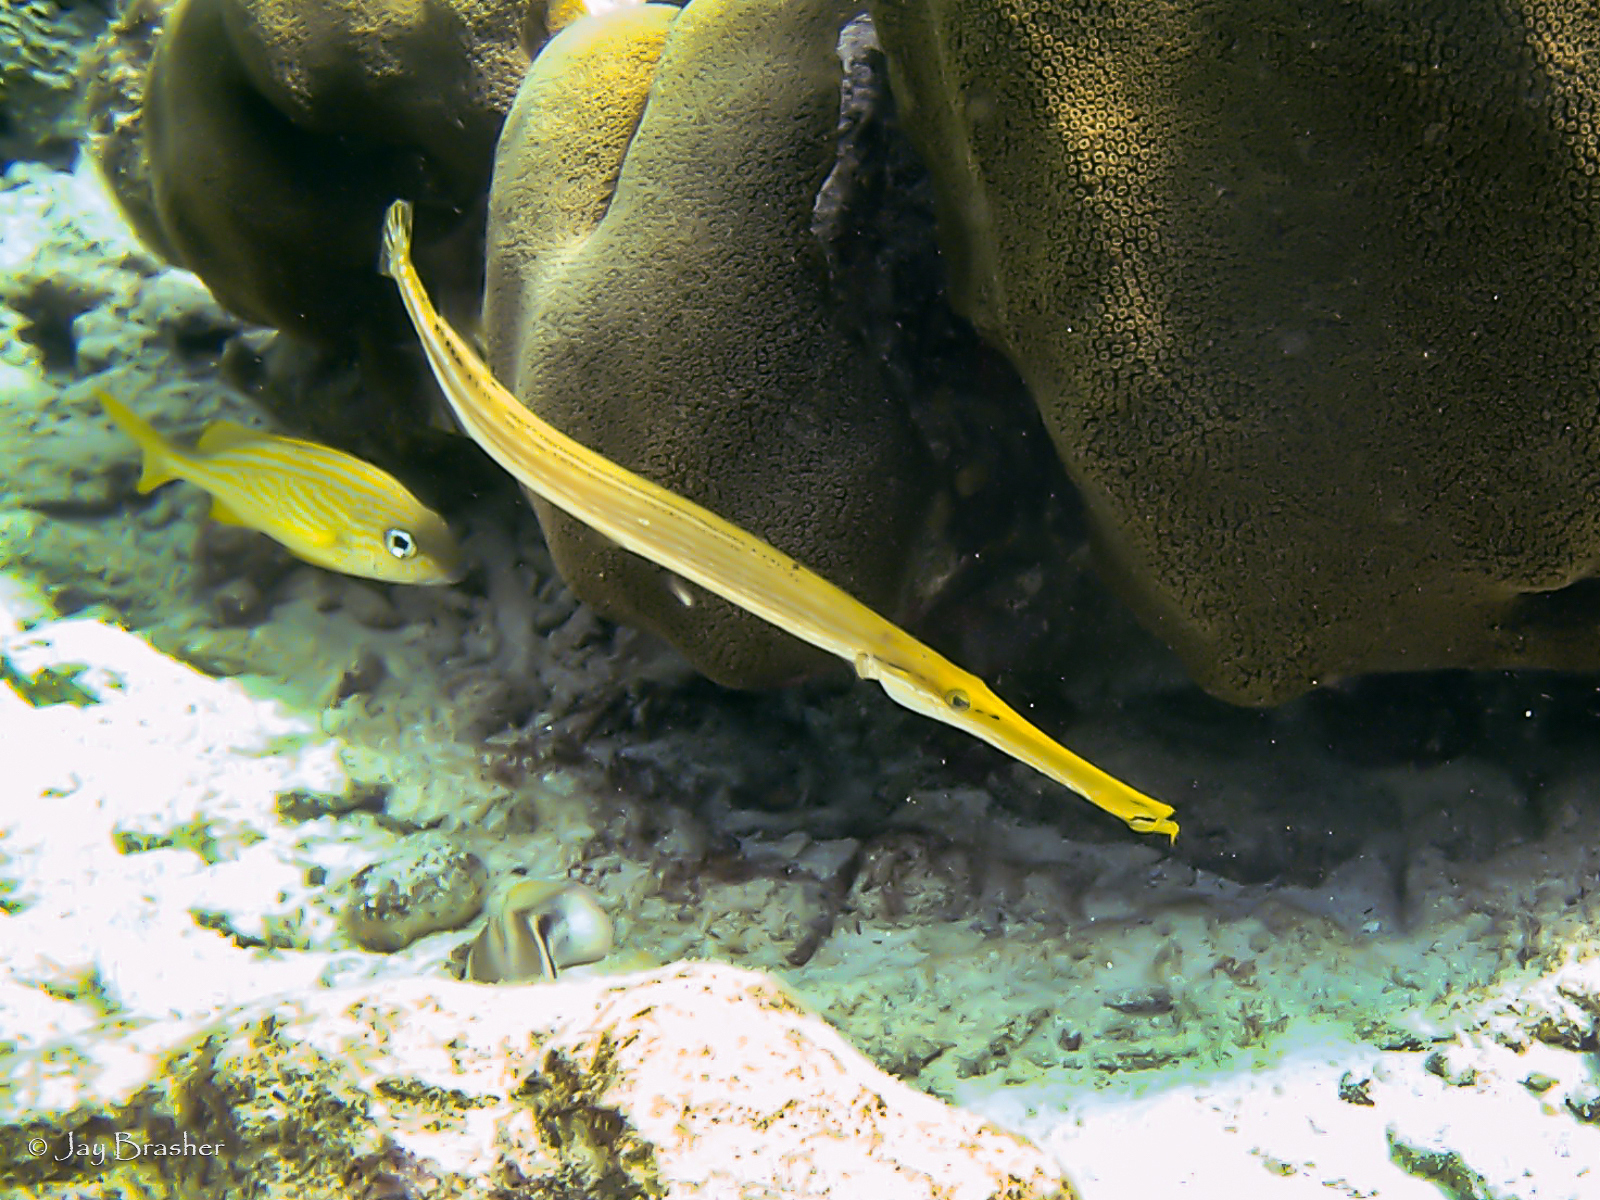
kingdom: Animalia
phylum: Chordata
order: Syngnathiformes
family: Aulostomidae
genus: Aulostomus
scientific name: Aulostomus maculatus
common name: West atlantic trumpetfish
